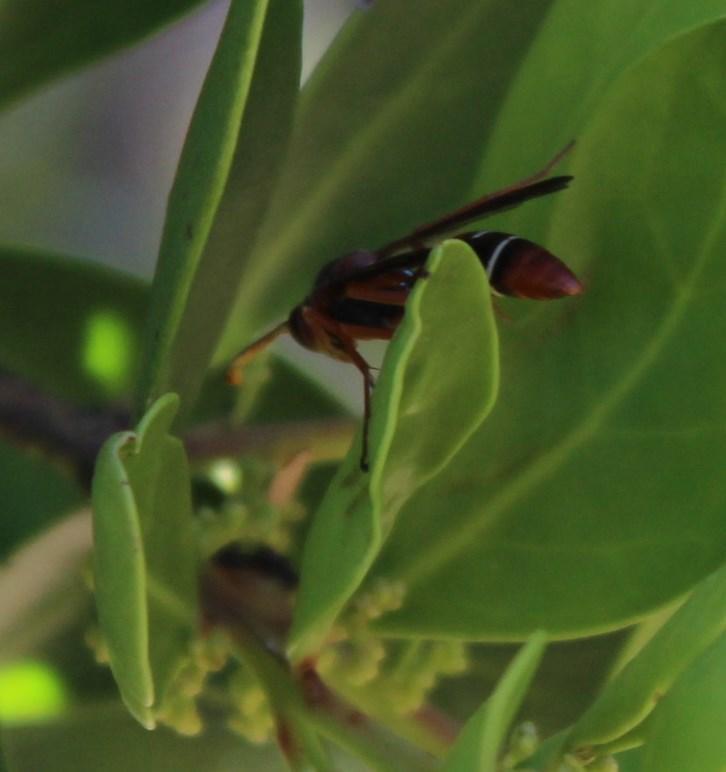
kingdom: Animalia
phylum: Arthropoda
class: Insecta
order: Hymenoptera
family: Eumenidae
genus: Polistes
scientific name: Polistes marginalis
